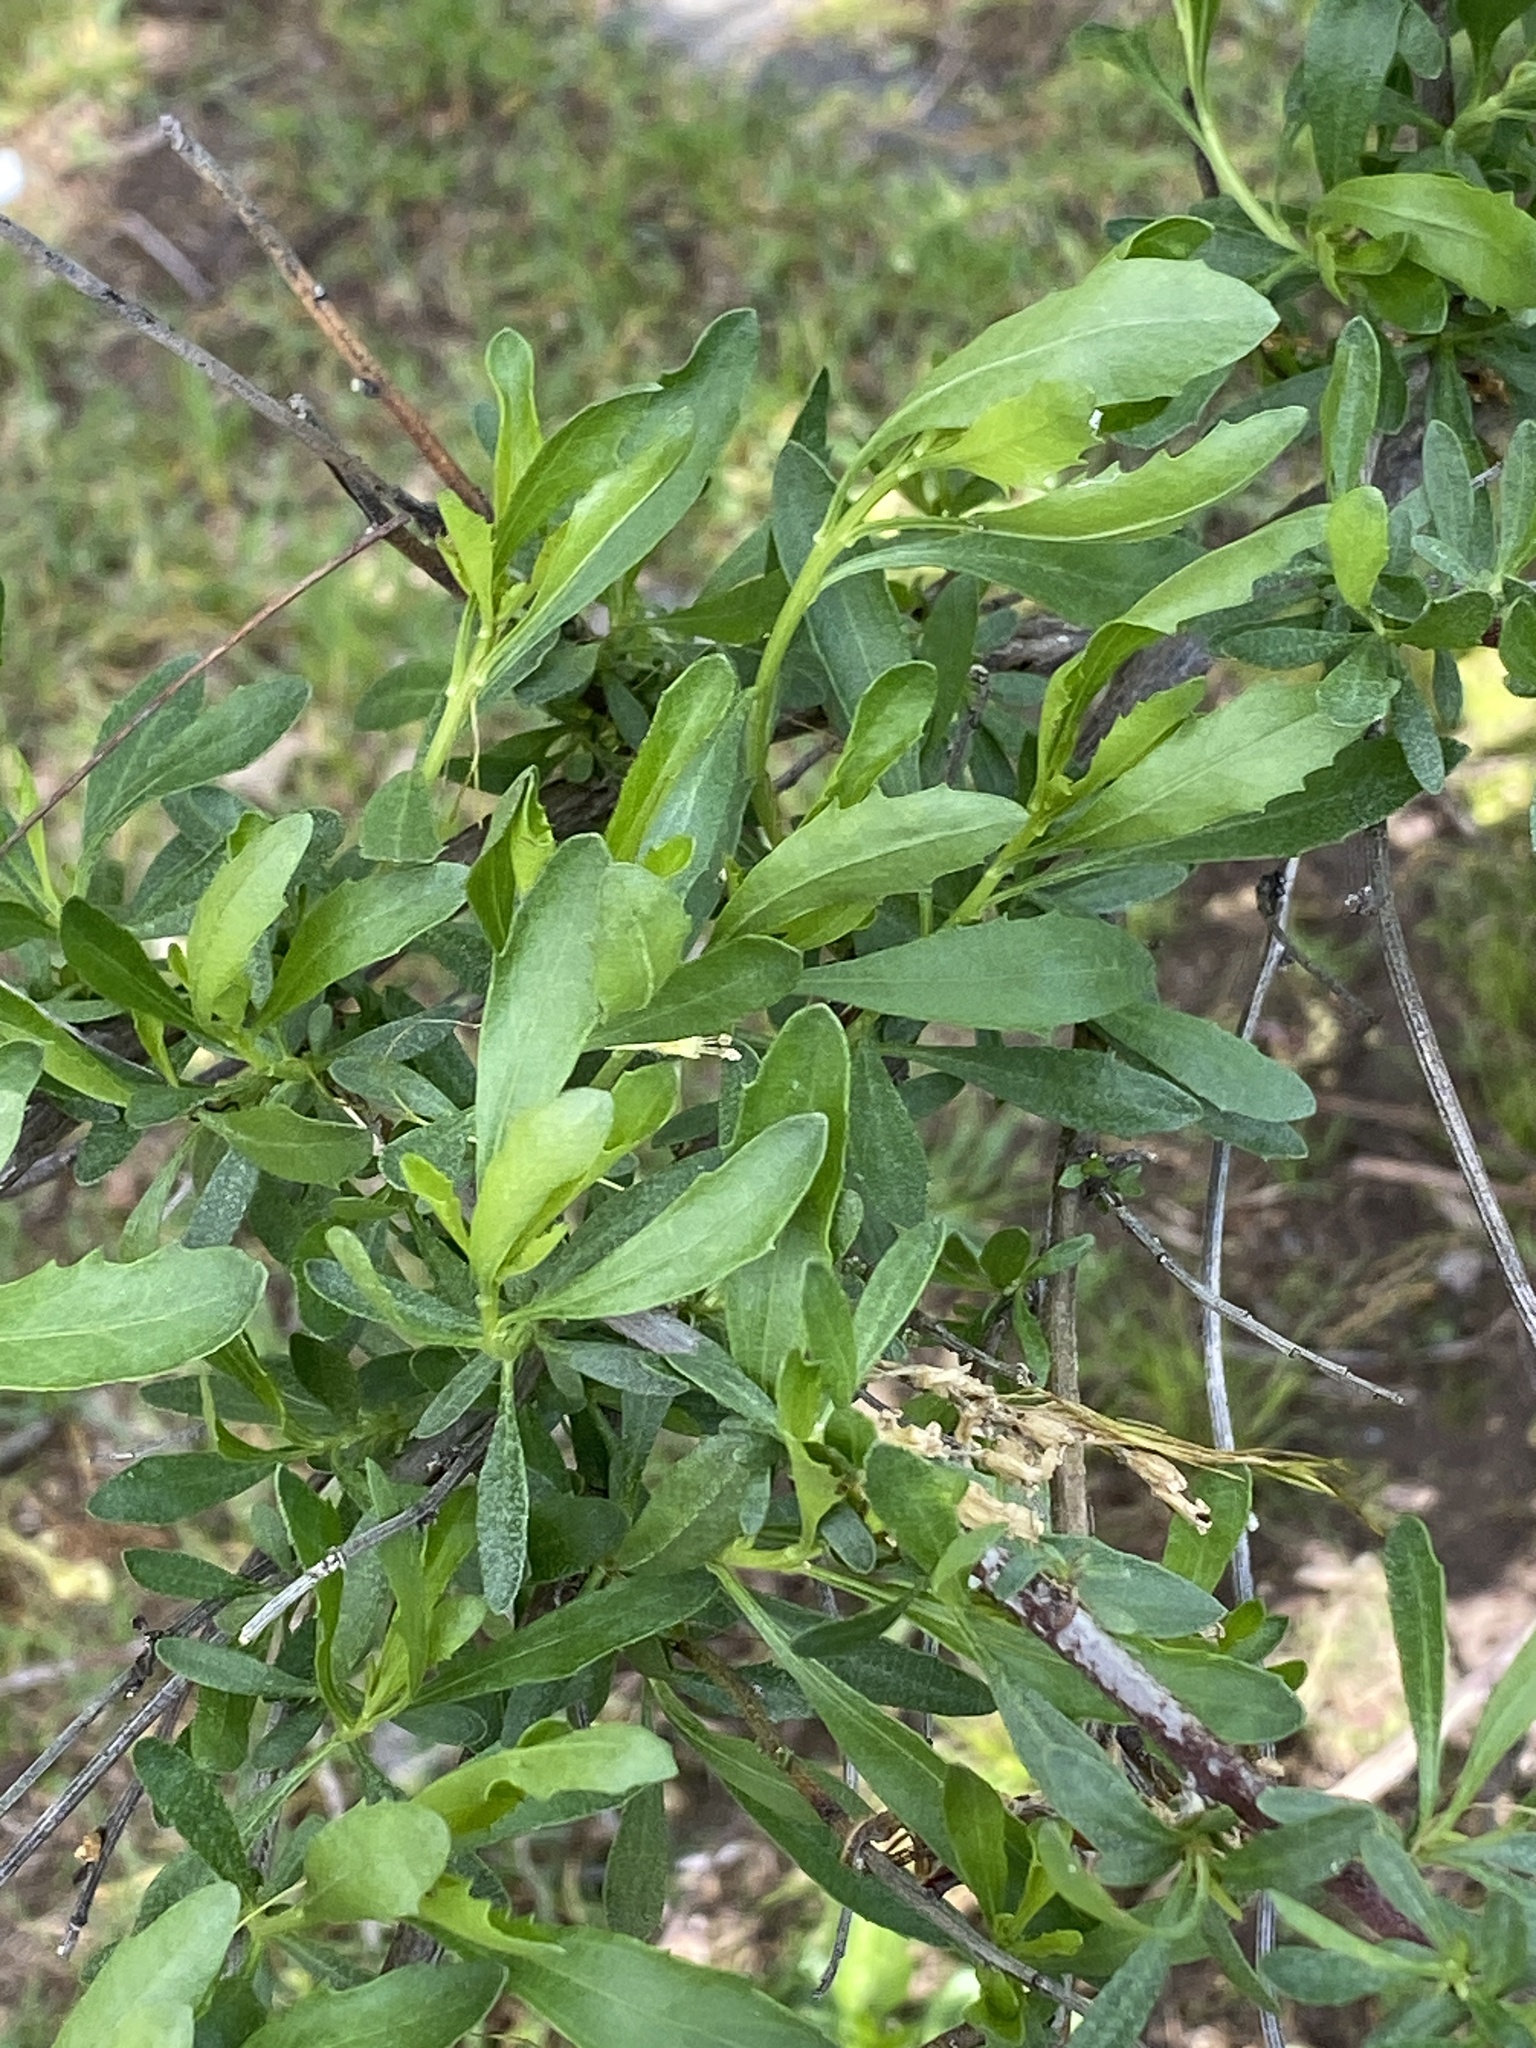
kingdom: Plantae
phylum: Tracheophyta
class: Magnoliopsida
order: Asterales
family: Asteraceae
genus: Baccharis
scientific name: Baccharis halimifolia
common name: Eastern baccharis
